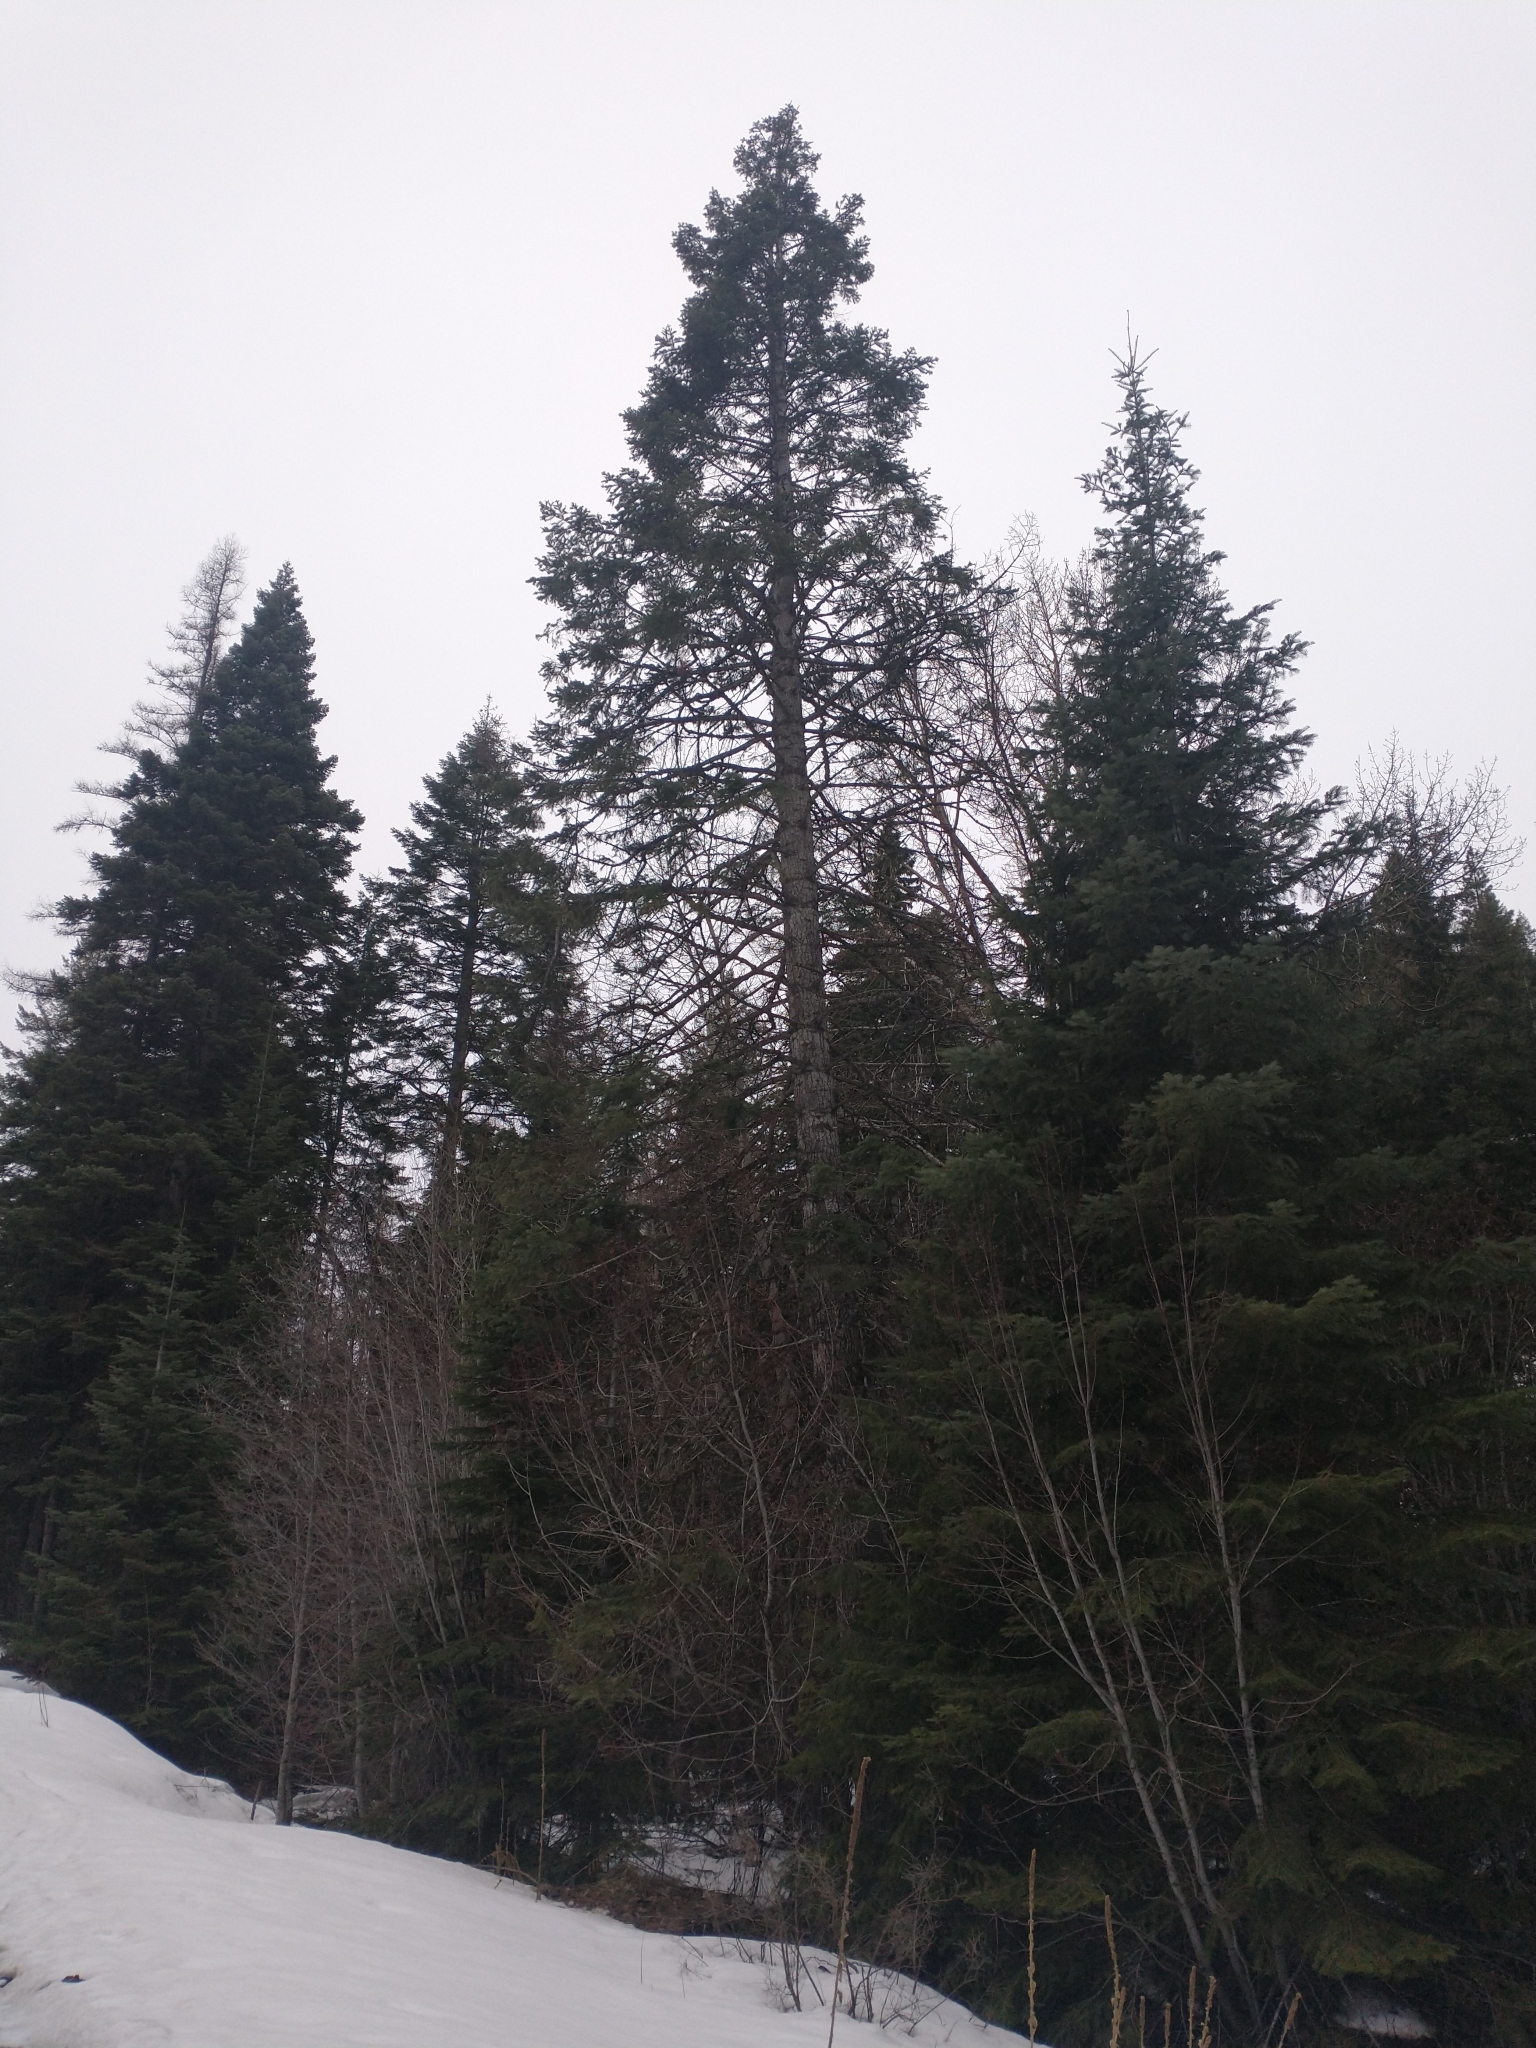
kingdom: Plantae
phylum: Tracheophyta
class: Pinopsida
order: Pinales
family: Pinaceae
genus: Abies
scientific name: Abies concolor
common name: Colorado fir
